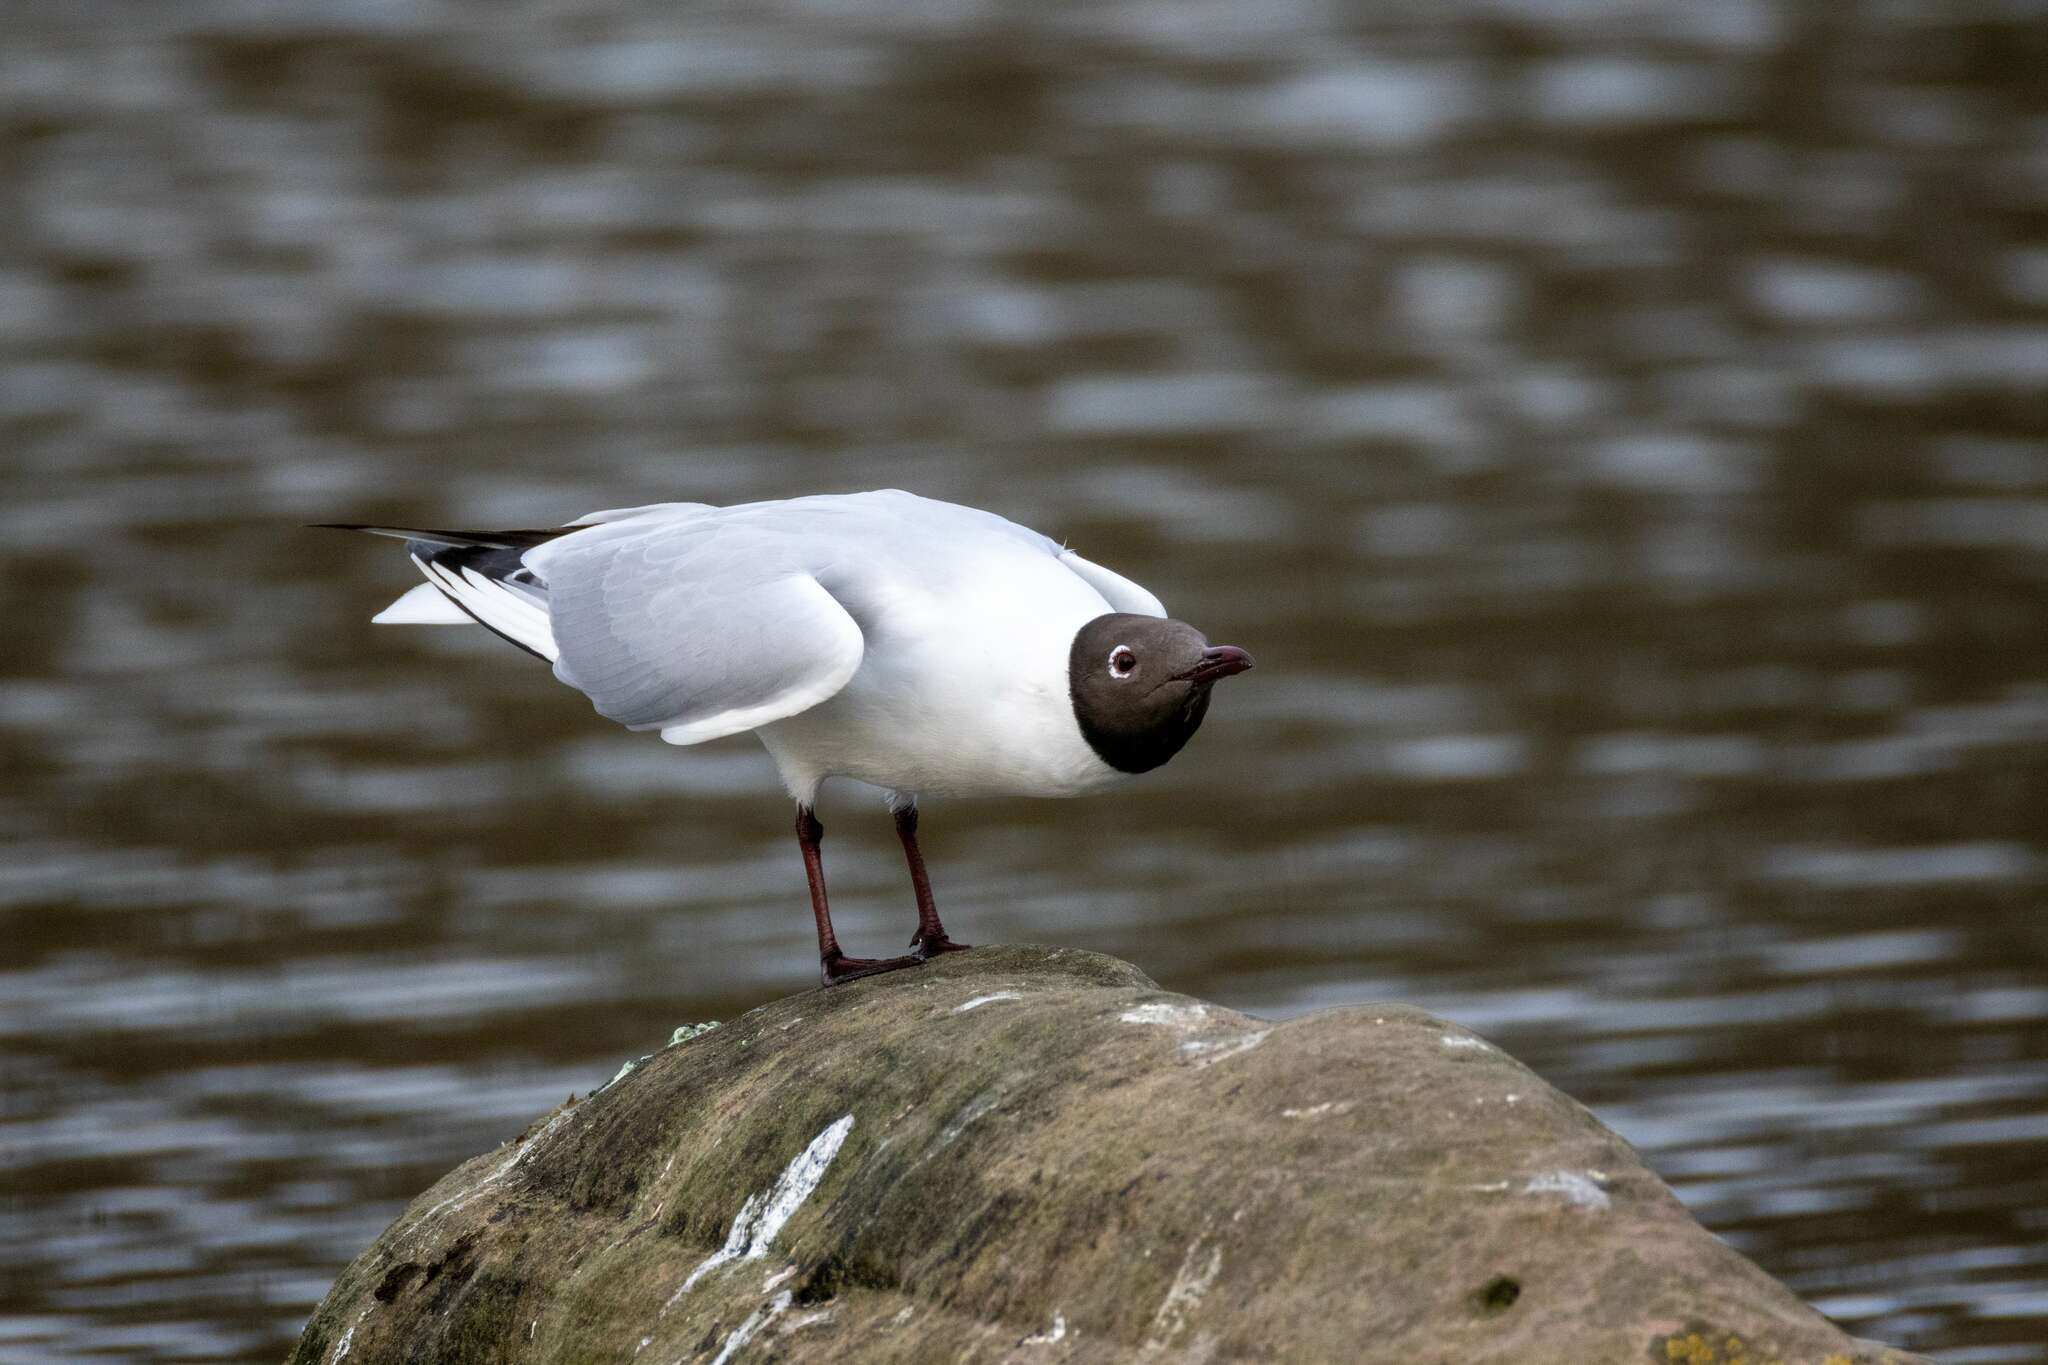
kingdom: Animalia
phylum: Chordata
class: Aves
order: Charadriiformes
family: Laridae
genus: Chroicocephalus
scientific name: Chroicocephalus ridibundus
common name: Black-headed gull
